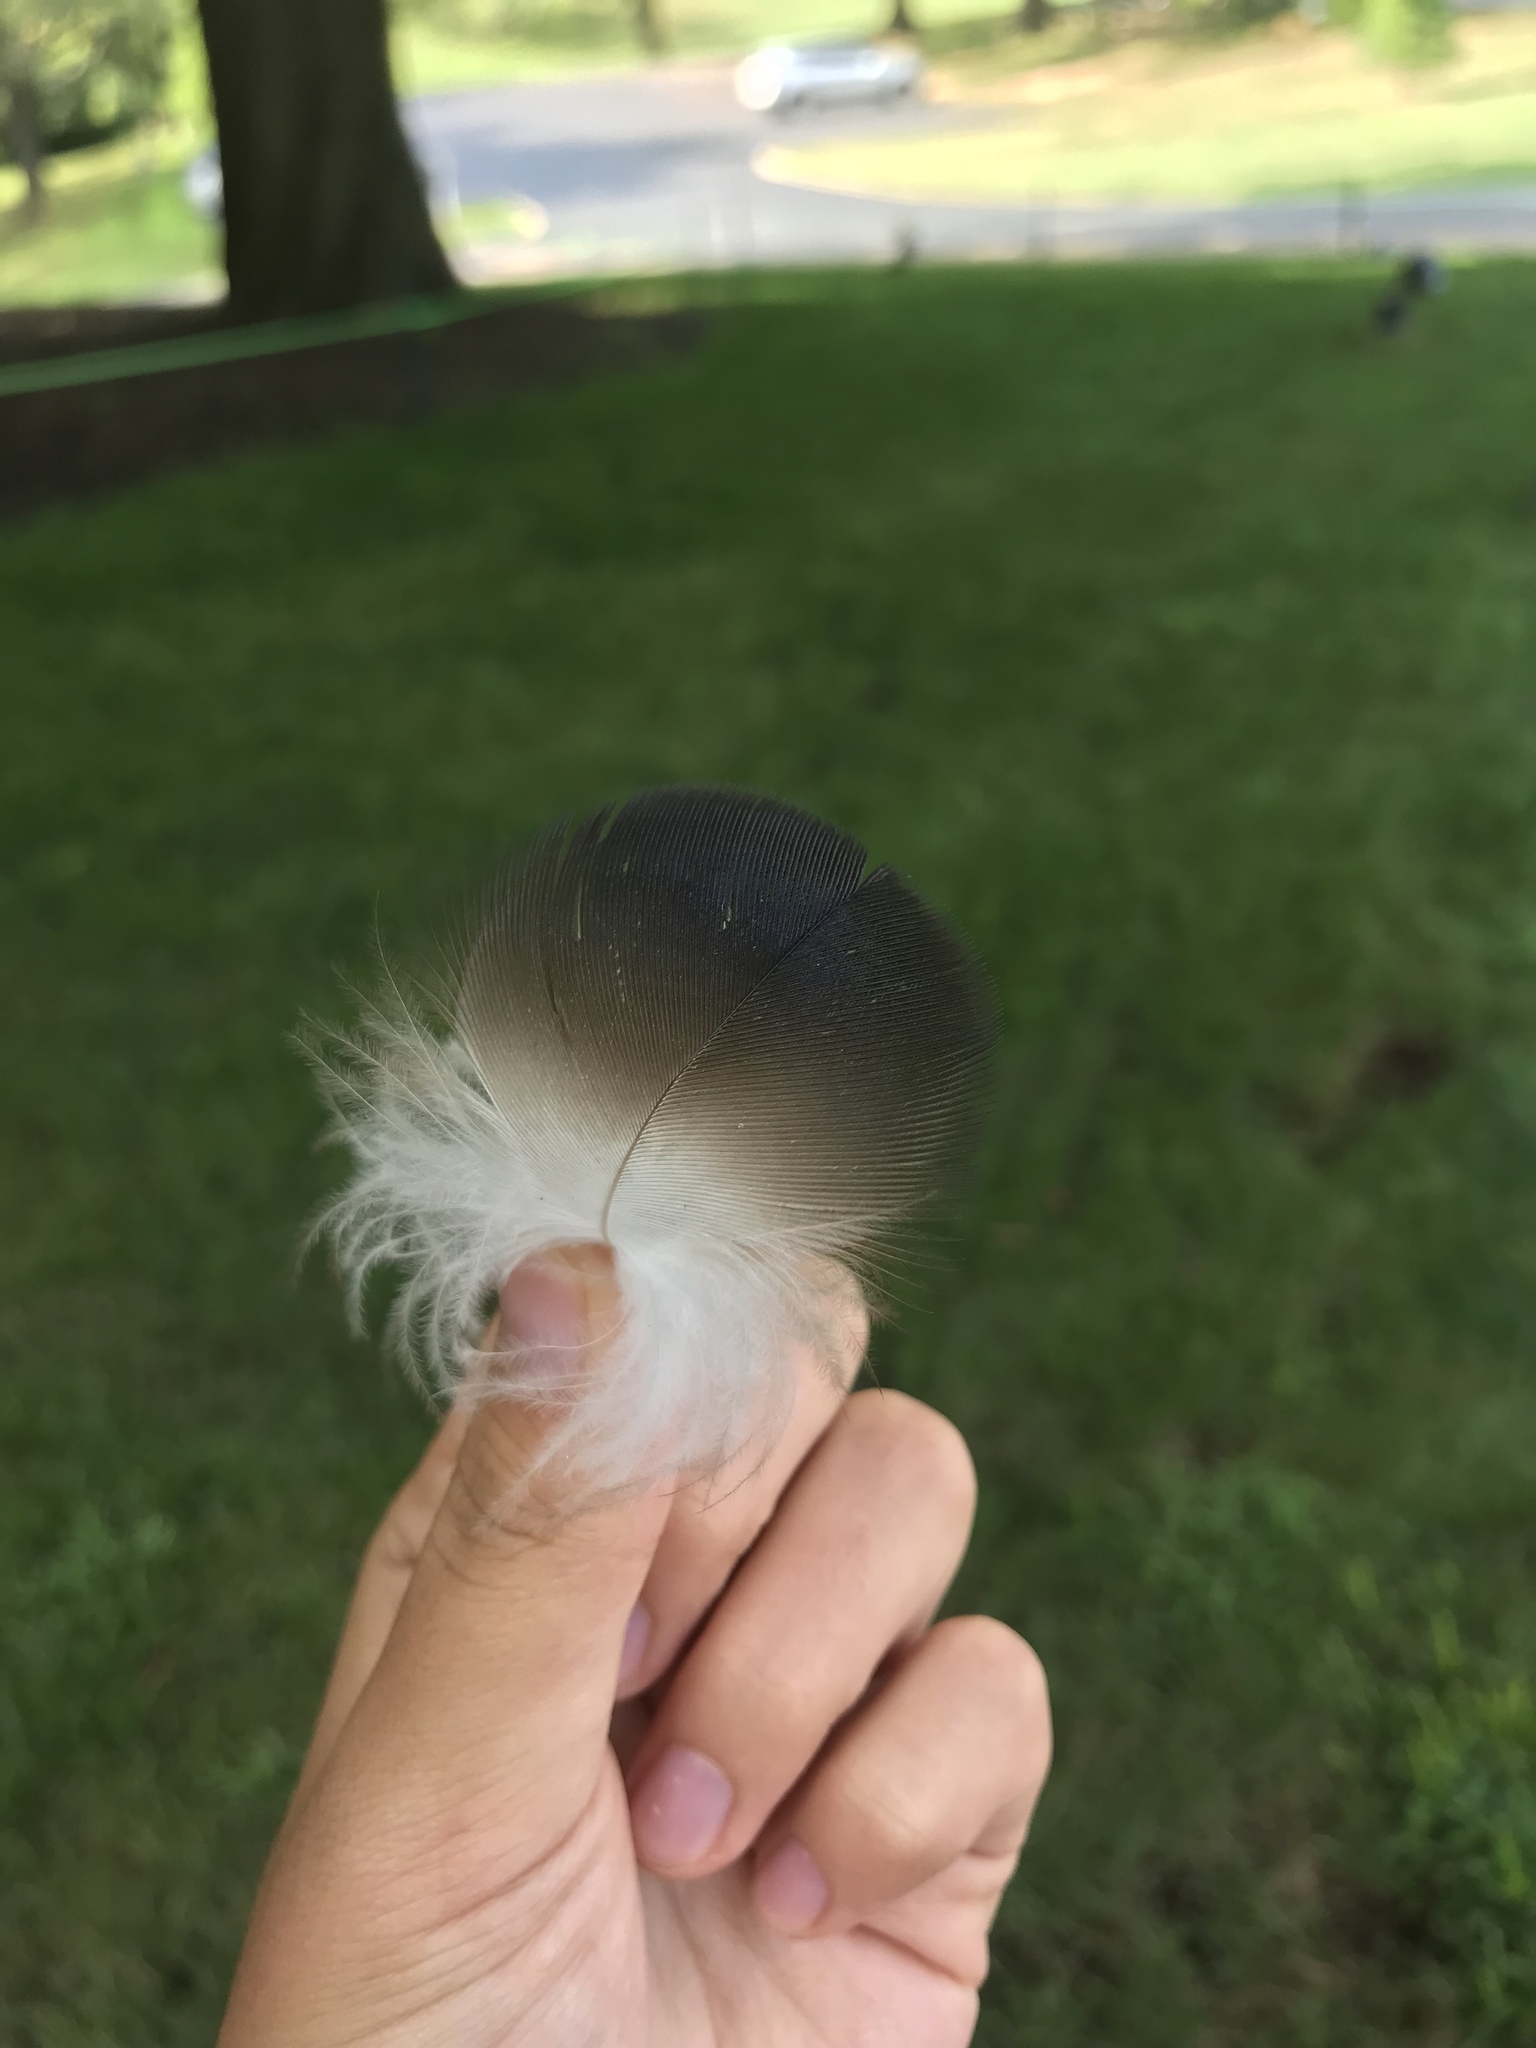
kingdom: Animalia
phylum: Chordata
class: Aves
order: Accipitriformes
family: Cathartidae
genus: Cathartes
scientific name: Cathartes aura
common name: Turkey vulture
